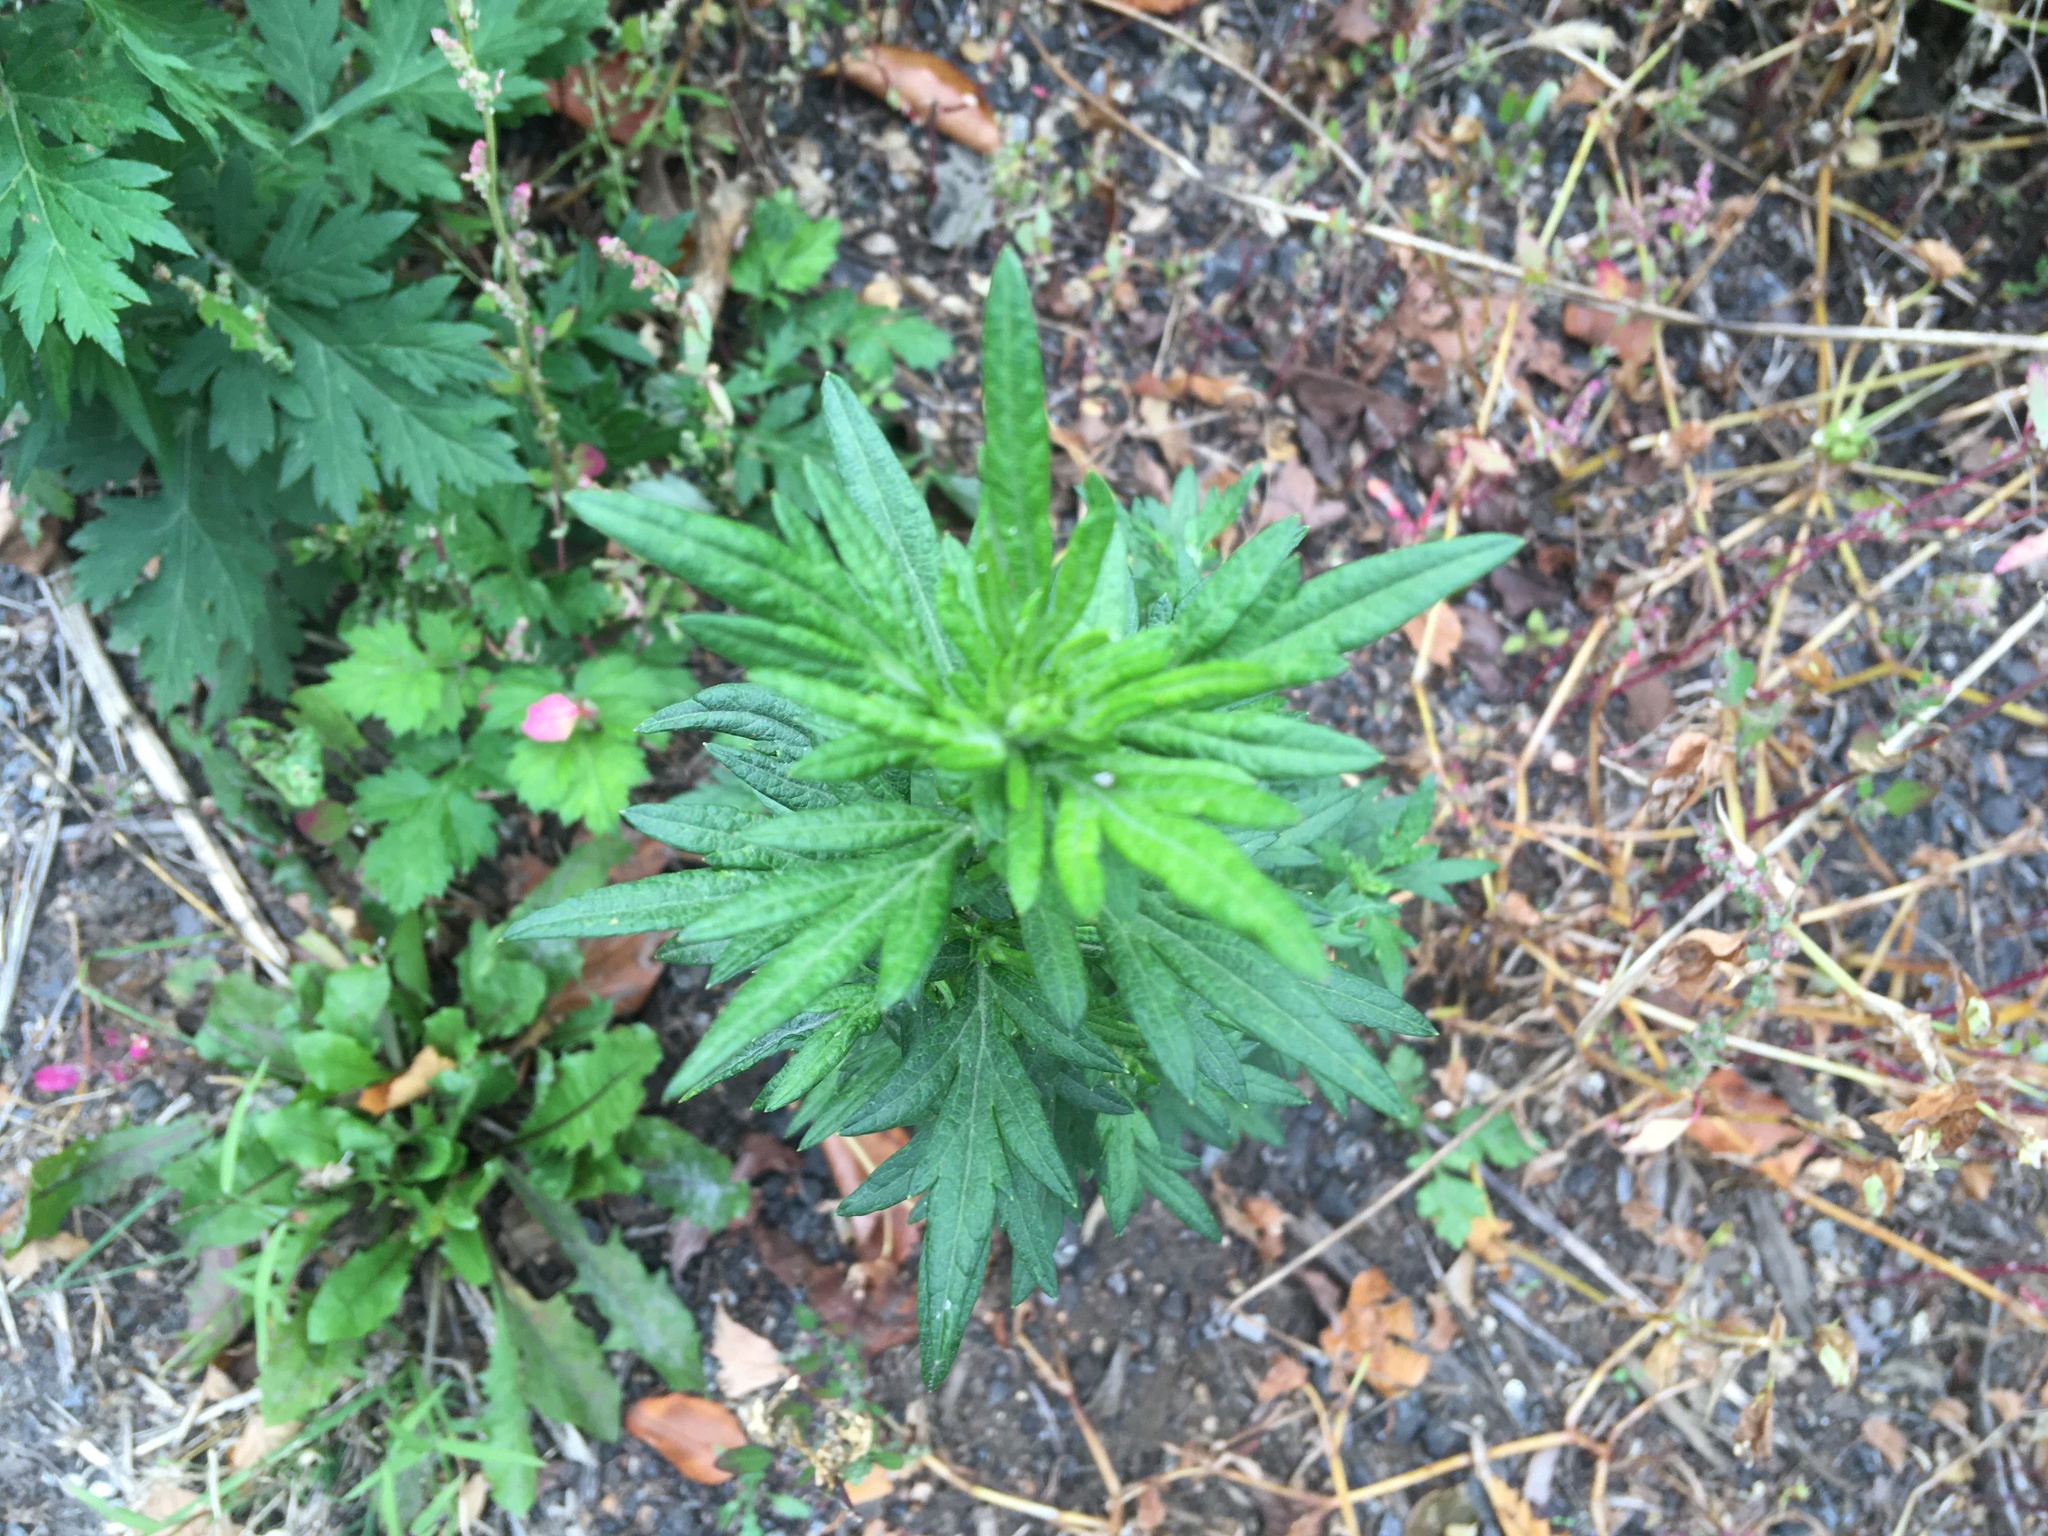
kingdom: Plantae
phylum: Tracheophyta
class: Magnoliopsida
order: Asterales
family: Asteraceae
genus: Artemisia
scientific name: Artemisia vulgaris
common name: Mugwort
